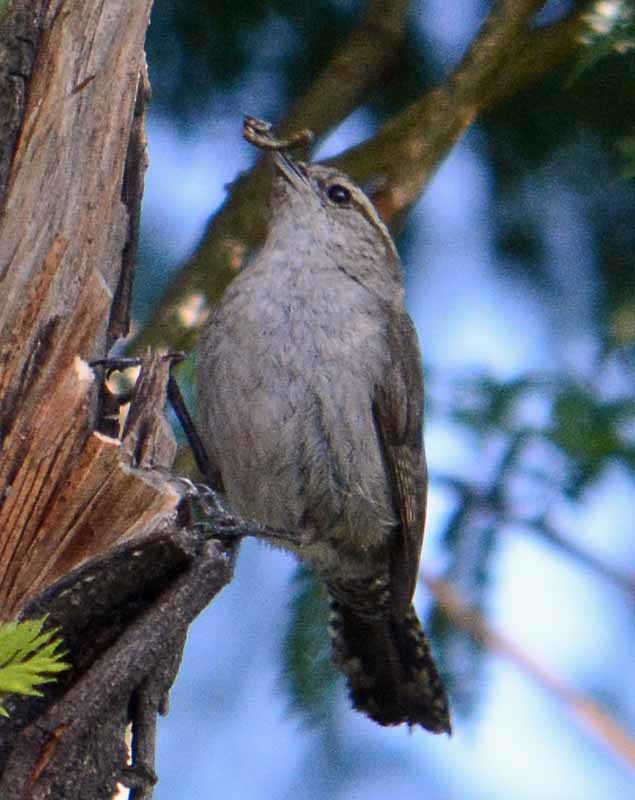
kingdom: Animalia
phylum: Chordata
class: Aves
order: Passeriformes
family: Troglodytidae
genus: Thryomanes
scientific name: Thryomanes bewickii
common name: Bewick's wren
